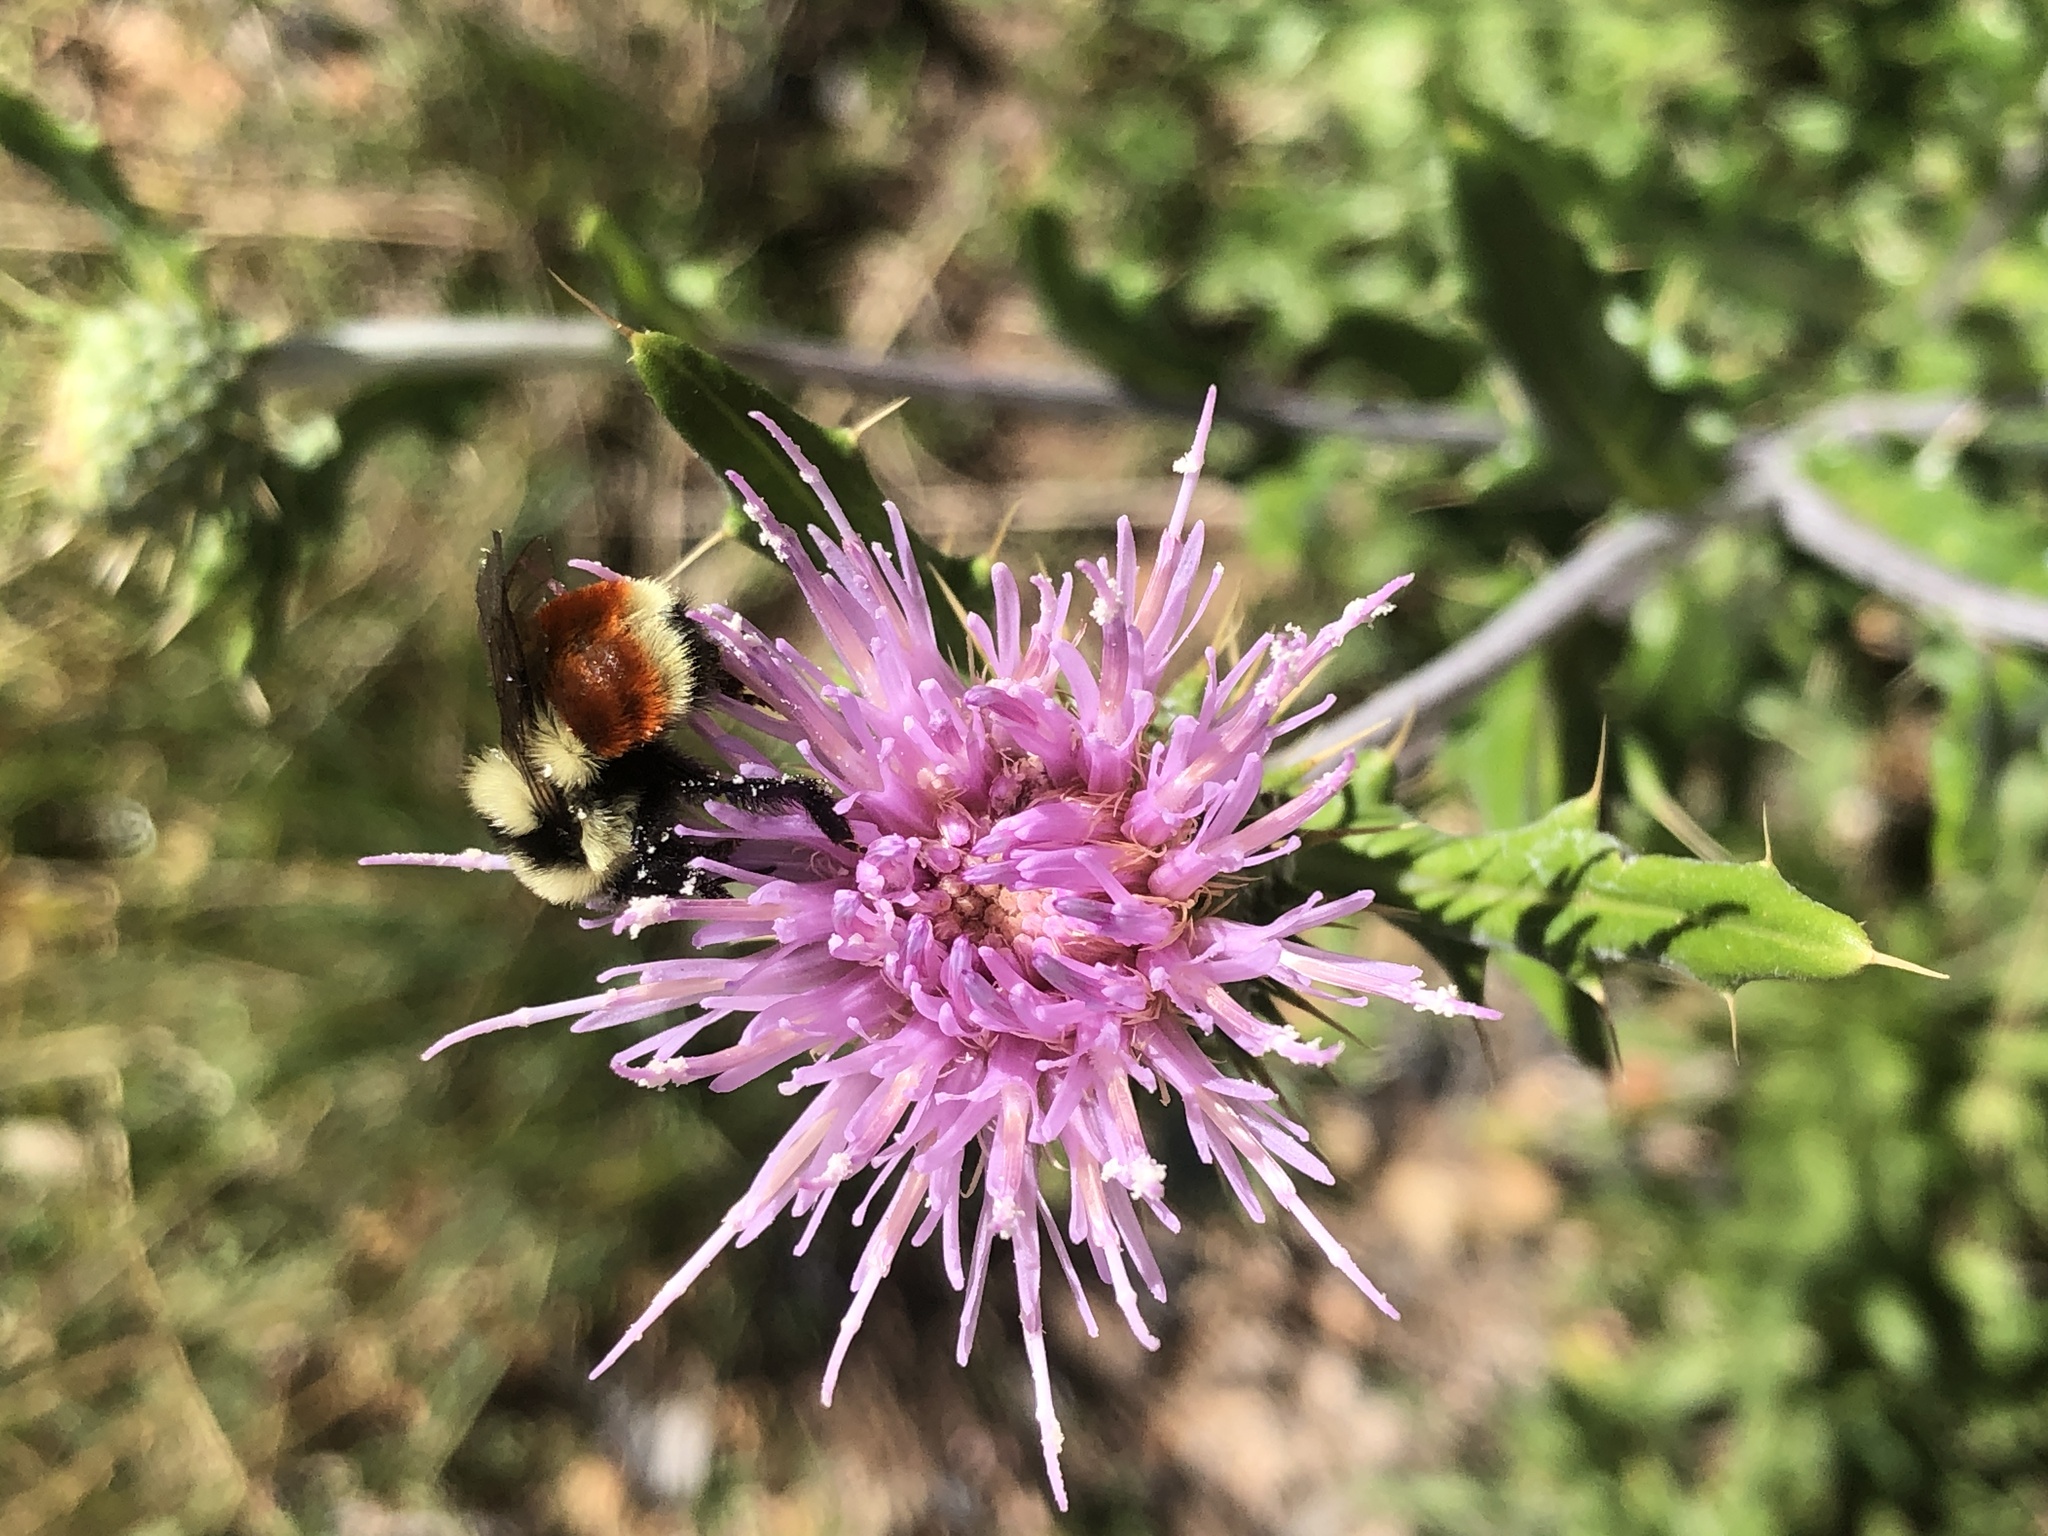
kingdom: Animalia
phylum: Arthropoda
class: Insecta
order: Hymenoptera
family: Apidae
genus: Bombus
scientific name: Bombus huntii
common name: Hunt bumble bee
